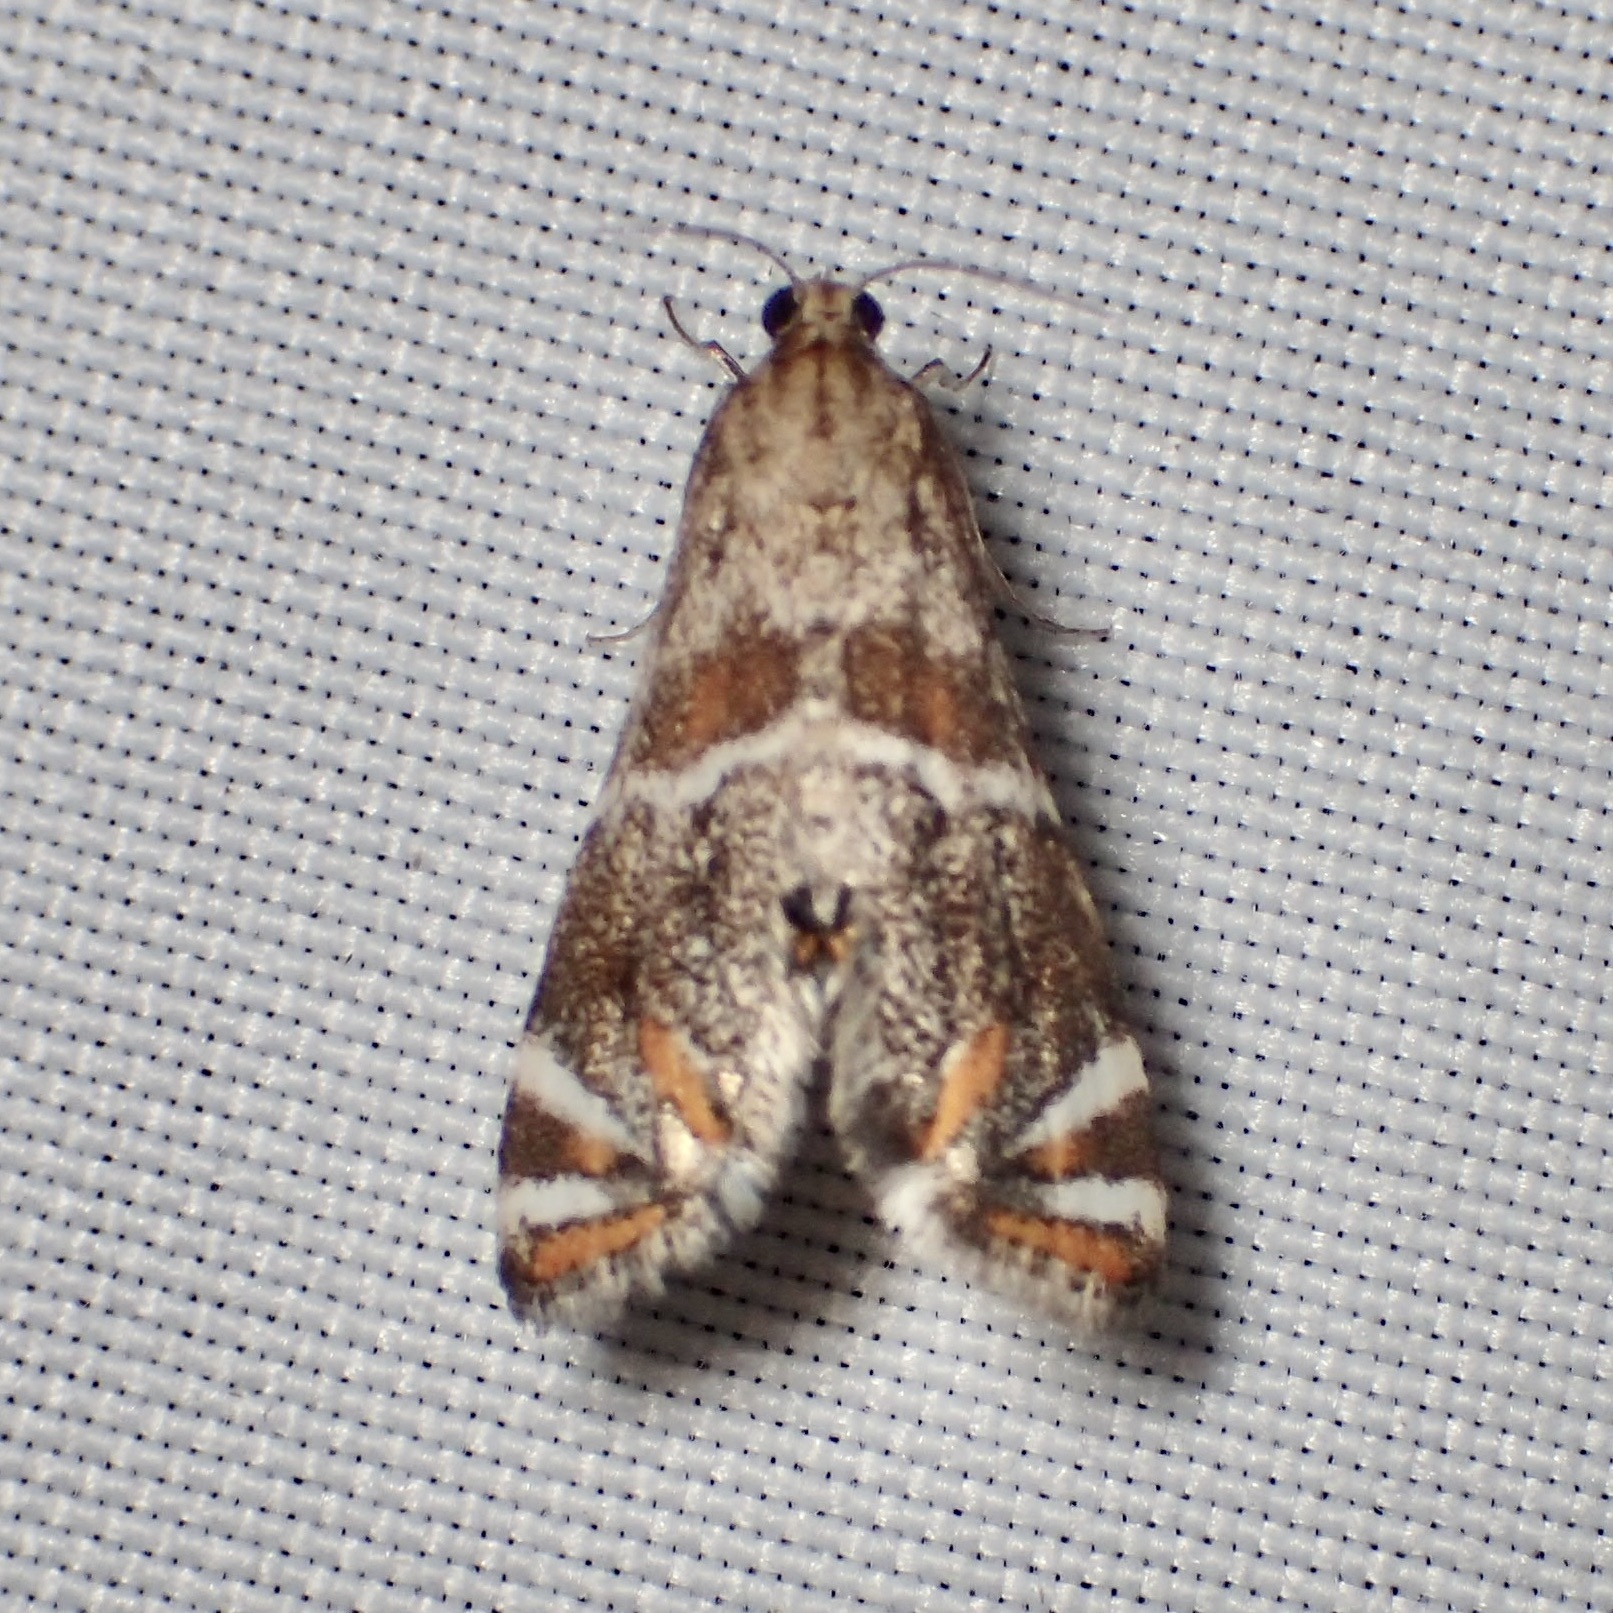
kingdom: Animalia
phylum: Arthropoda
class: Insecta
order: Lepidoptera
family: Crambidae
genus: Petrophila
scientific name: Petrophila jaliscalis
